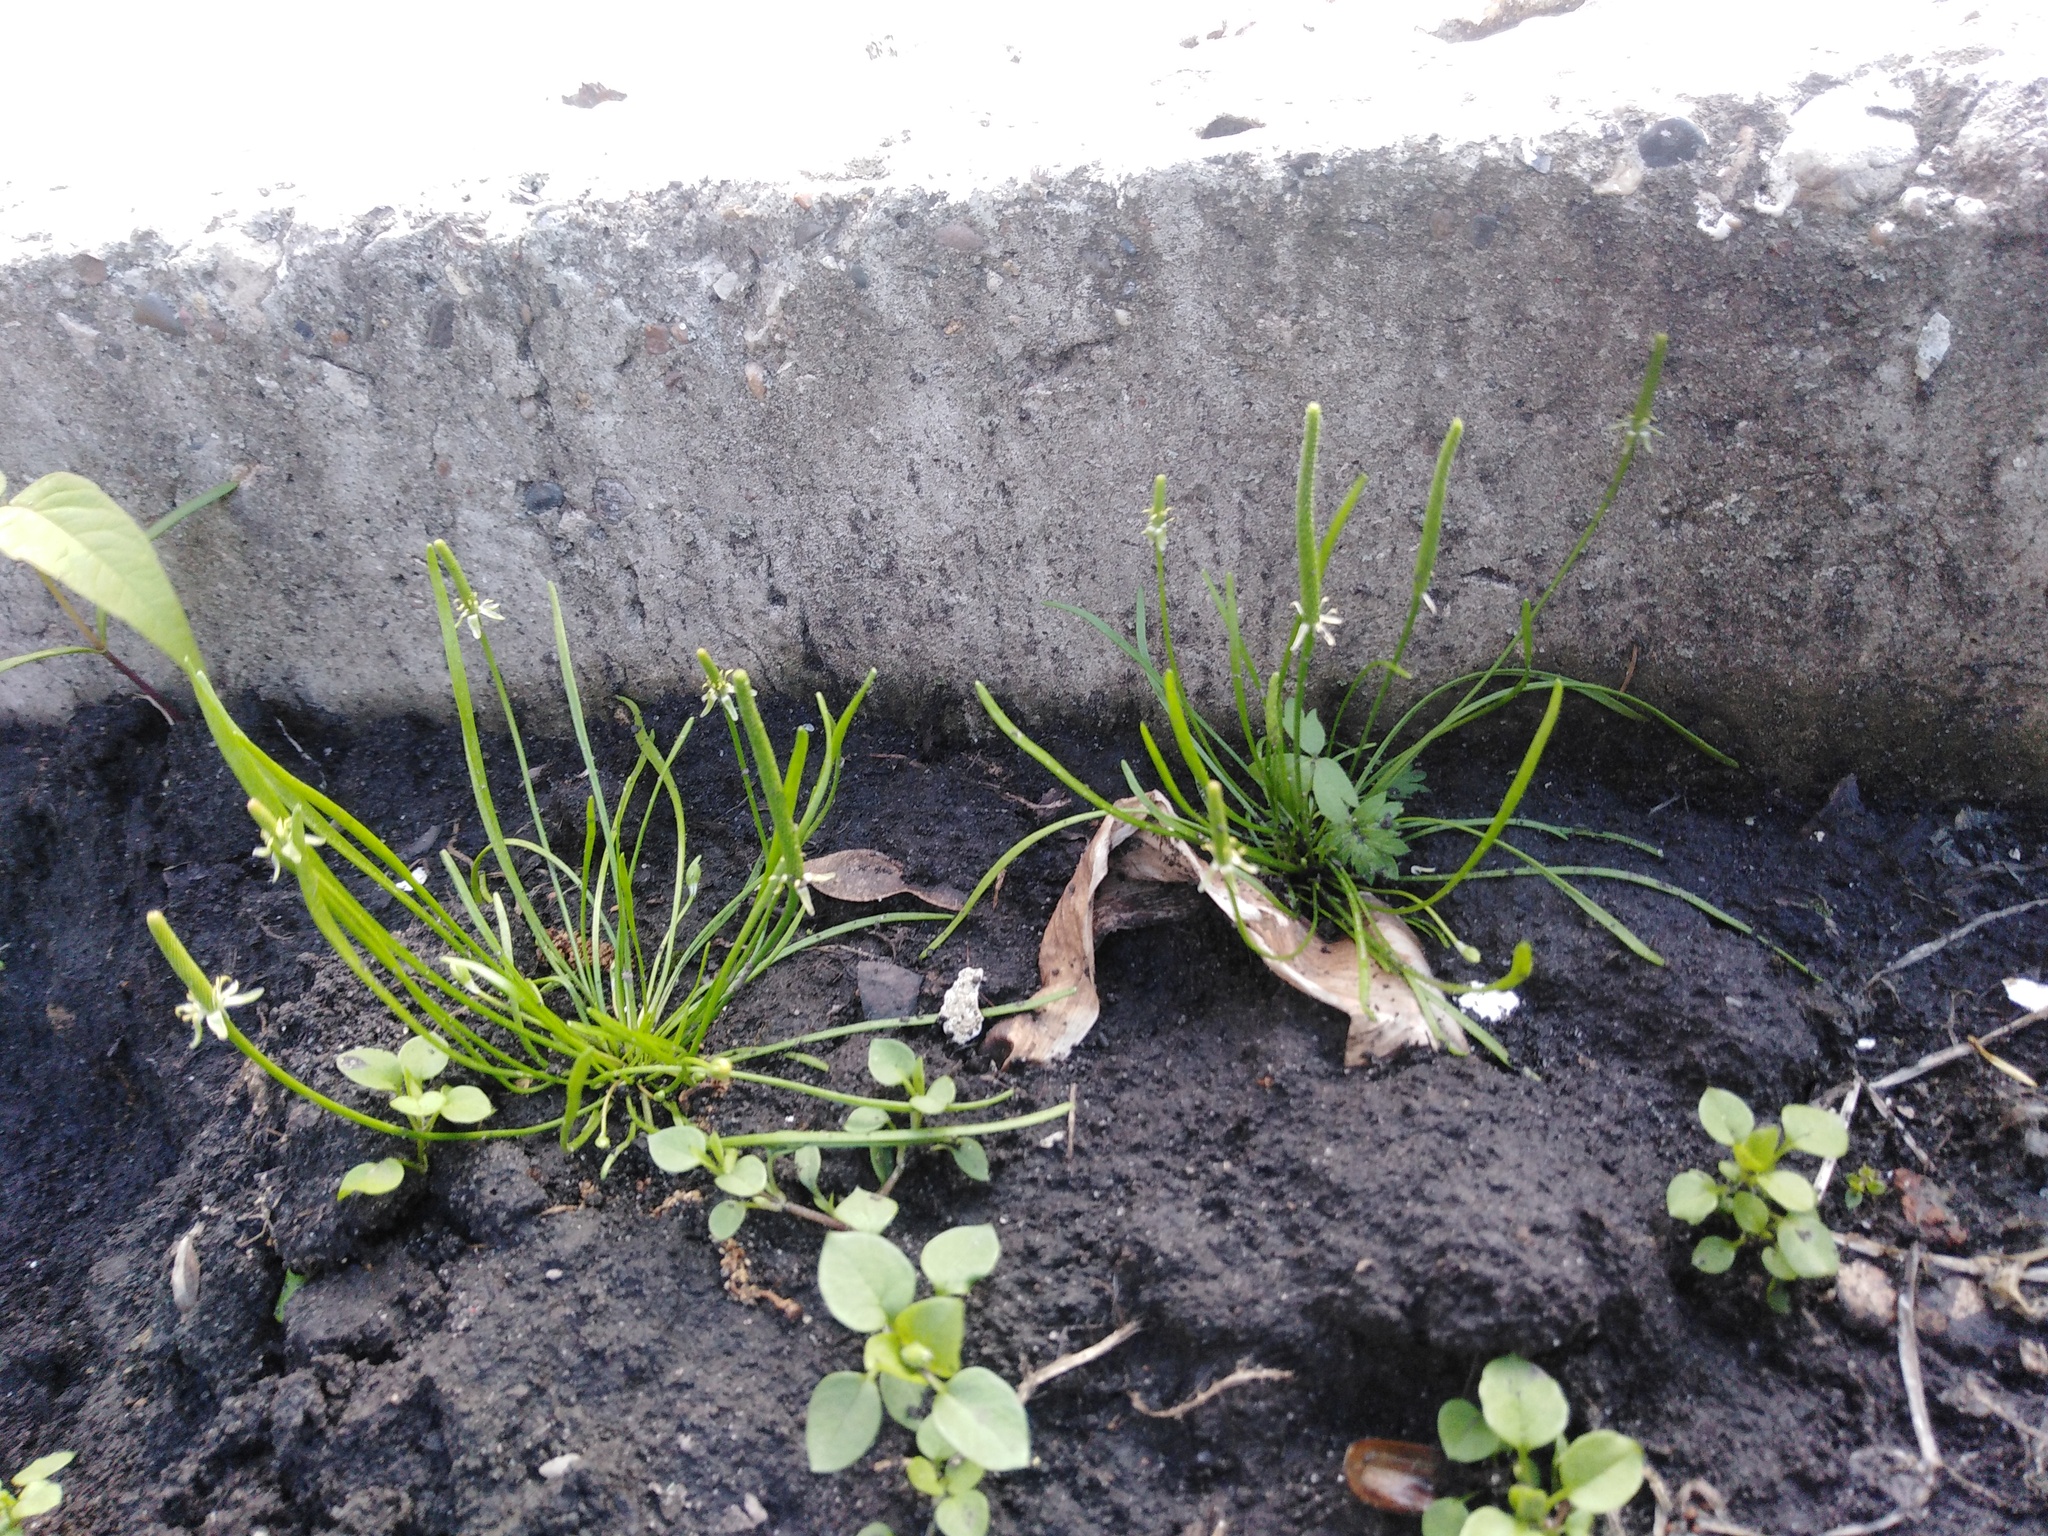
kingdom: Plantae
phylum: Tracheophyta
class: Magnoliopsida
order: Ranunculales
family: Ranunculaceae
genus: Myosurus
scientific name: Myosurus minimus
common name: Mousetail
